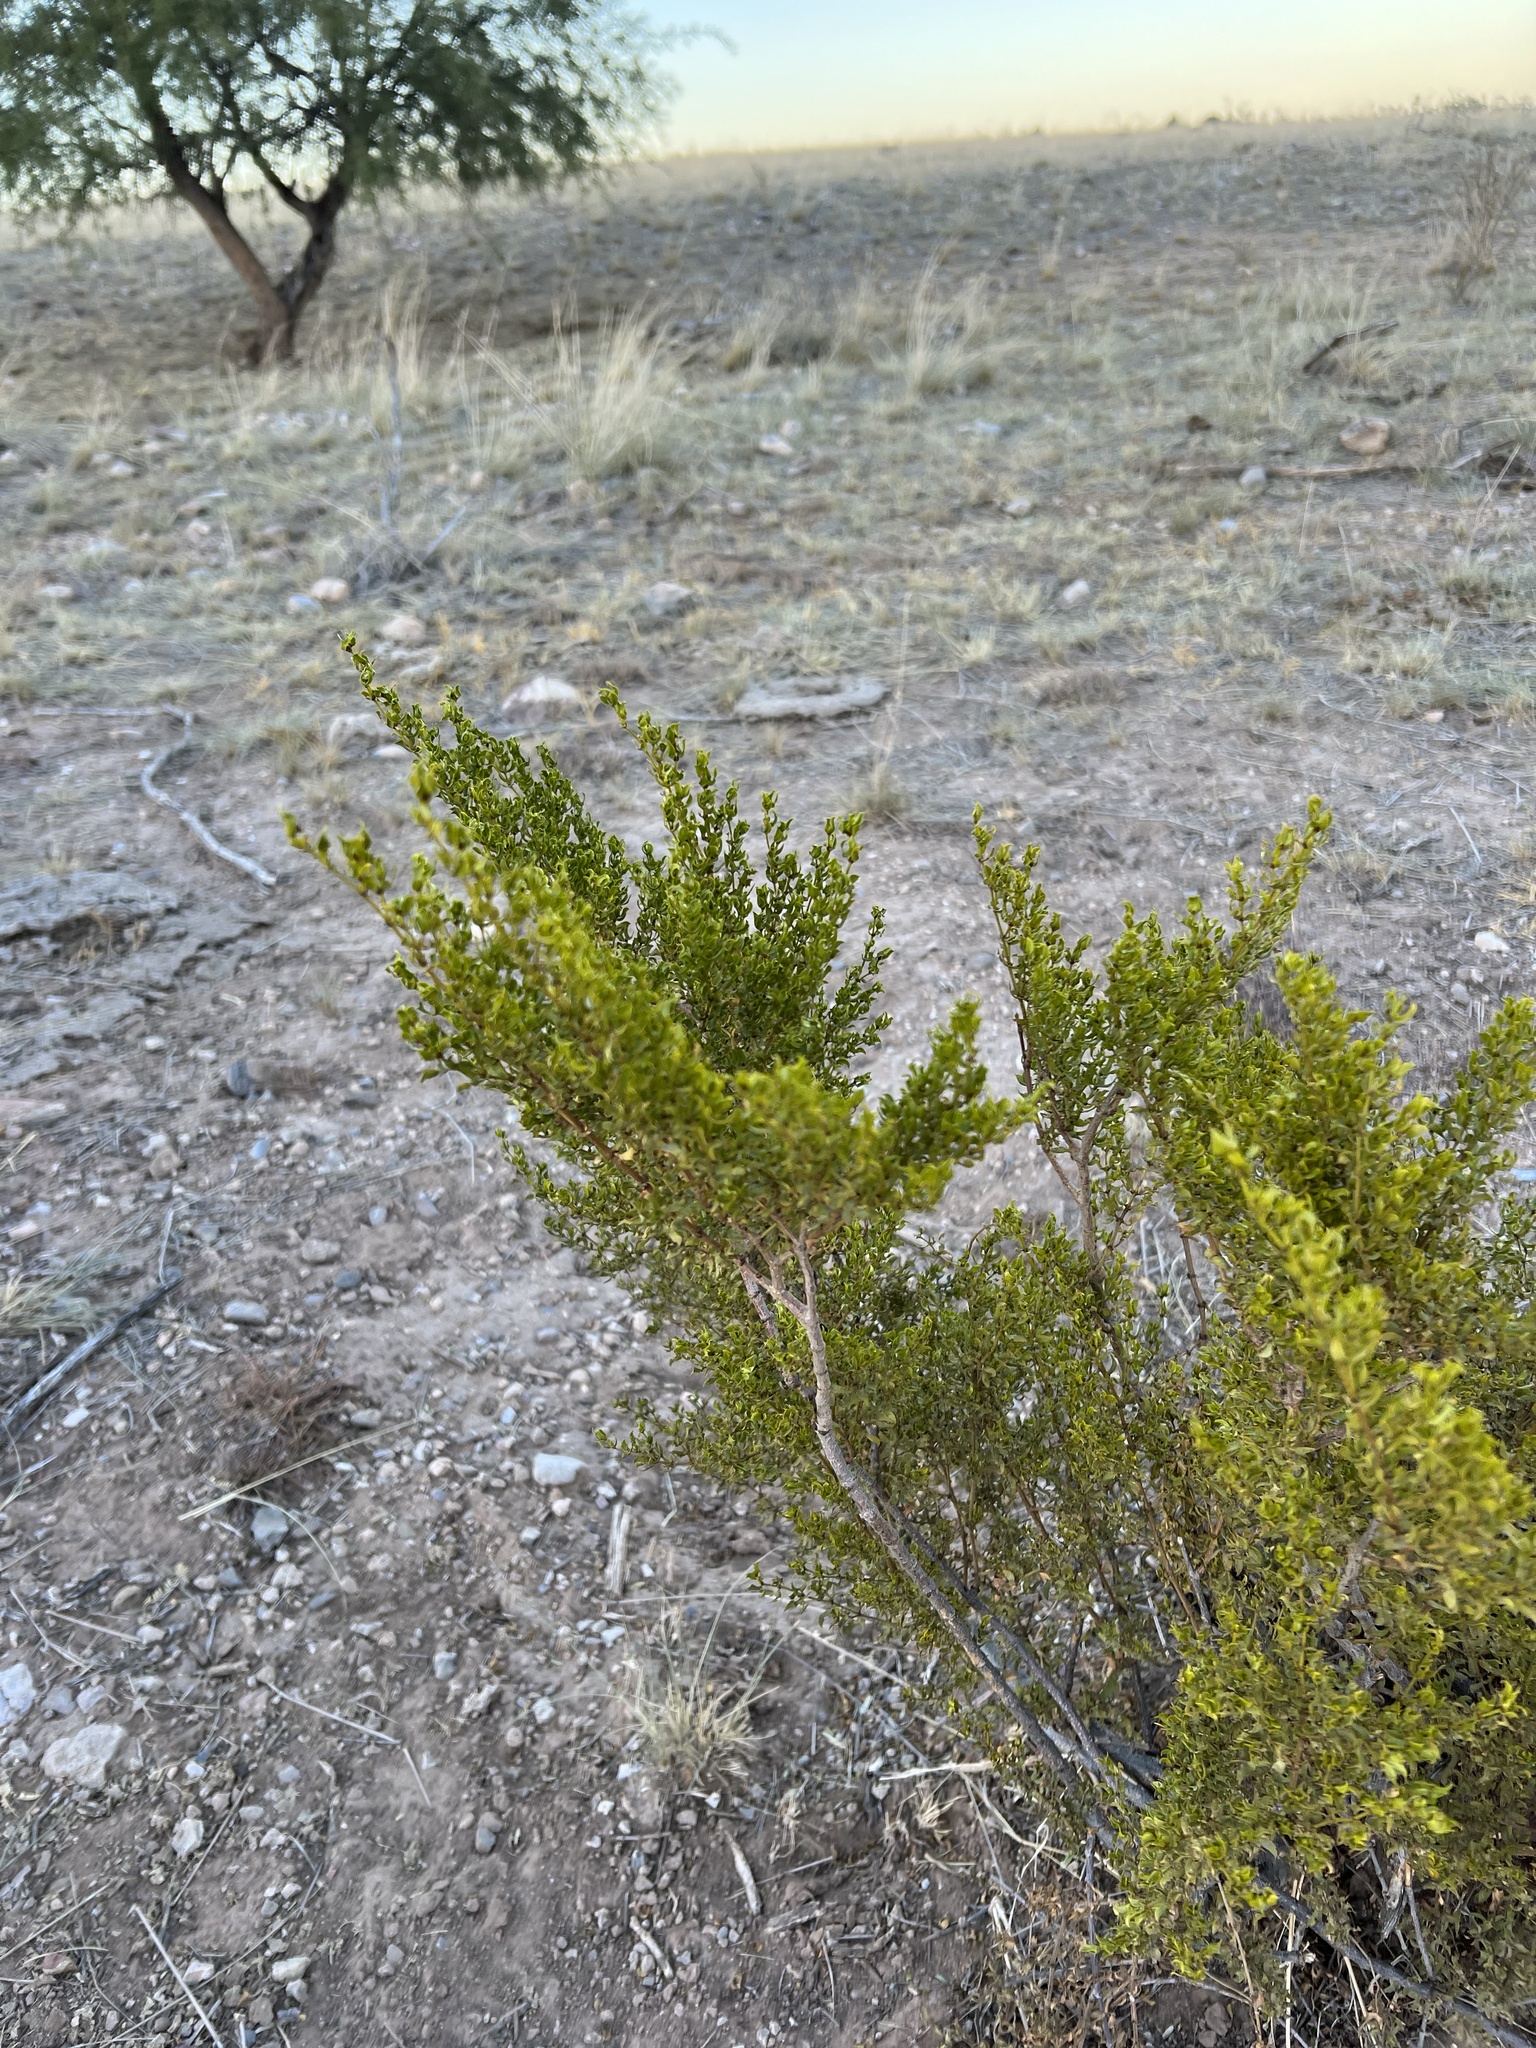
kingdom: Plantae
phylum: Tracheophyta
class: Magnoliopsida
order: Zygophyllales
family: Zygophyllaceae
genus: Larrea
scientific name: Larrea tridentata
